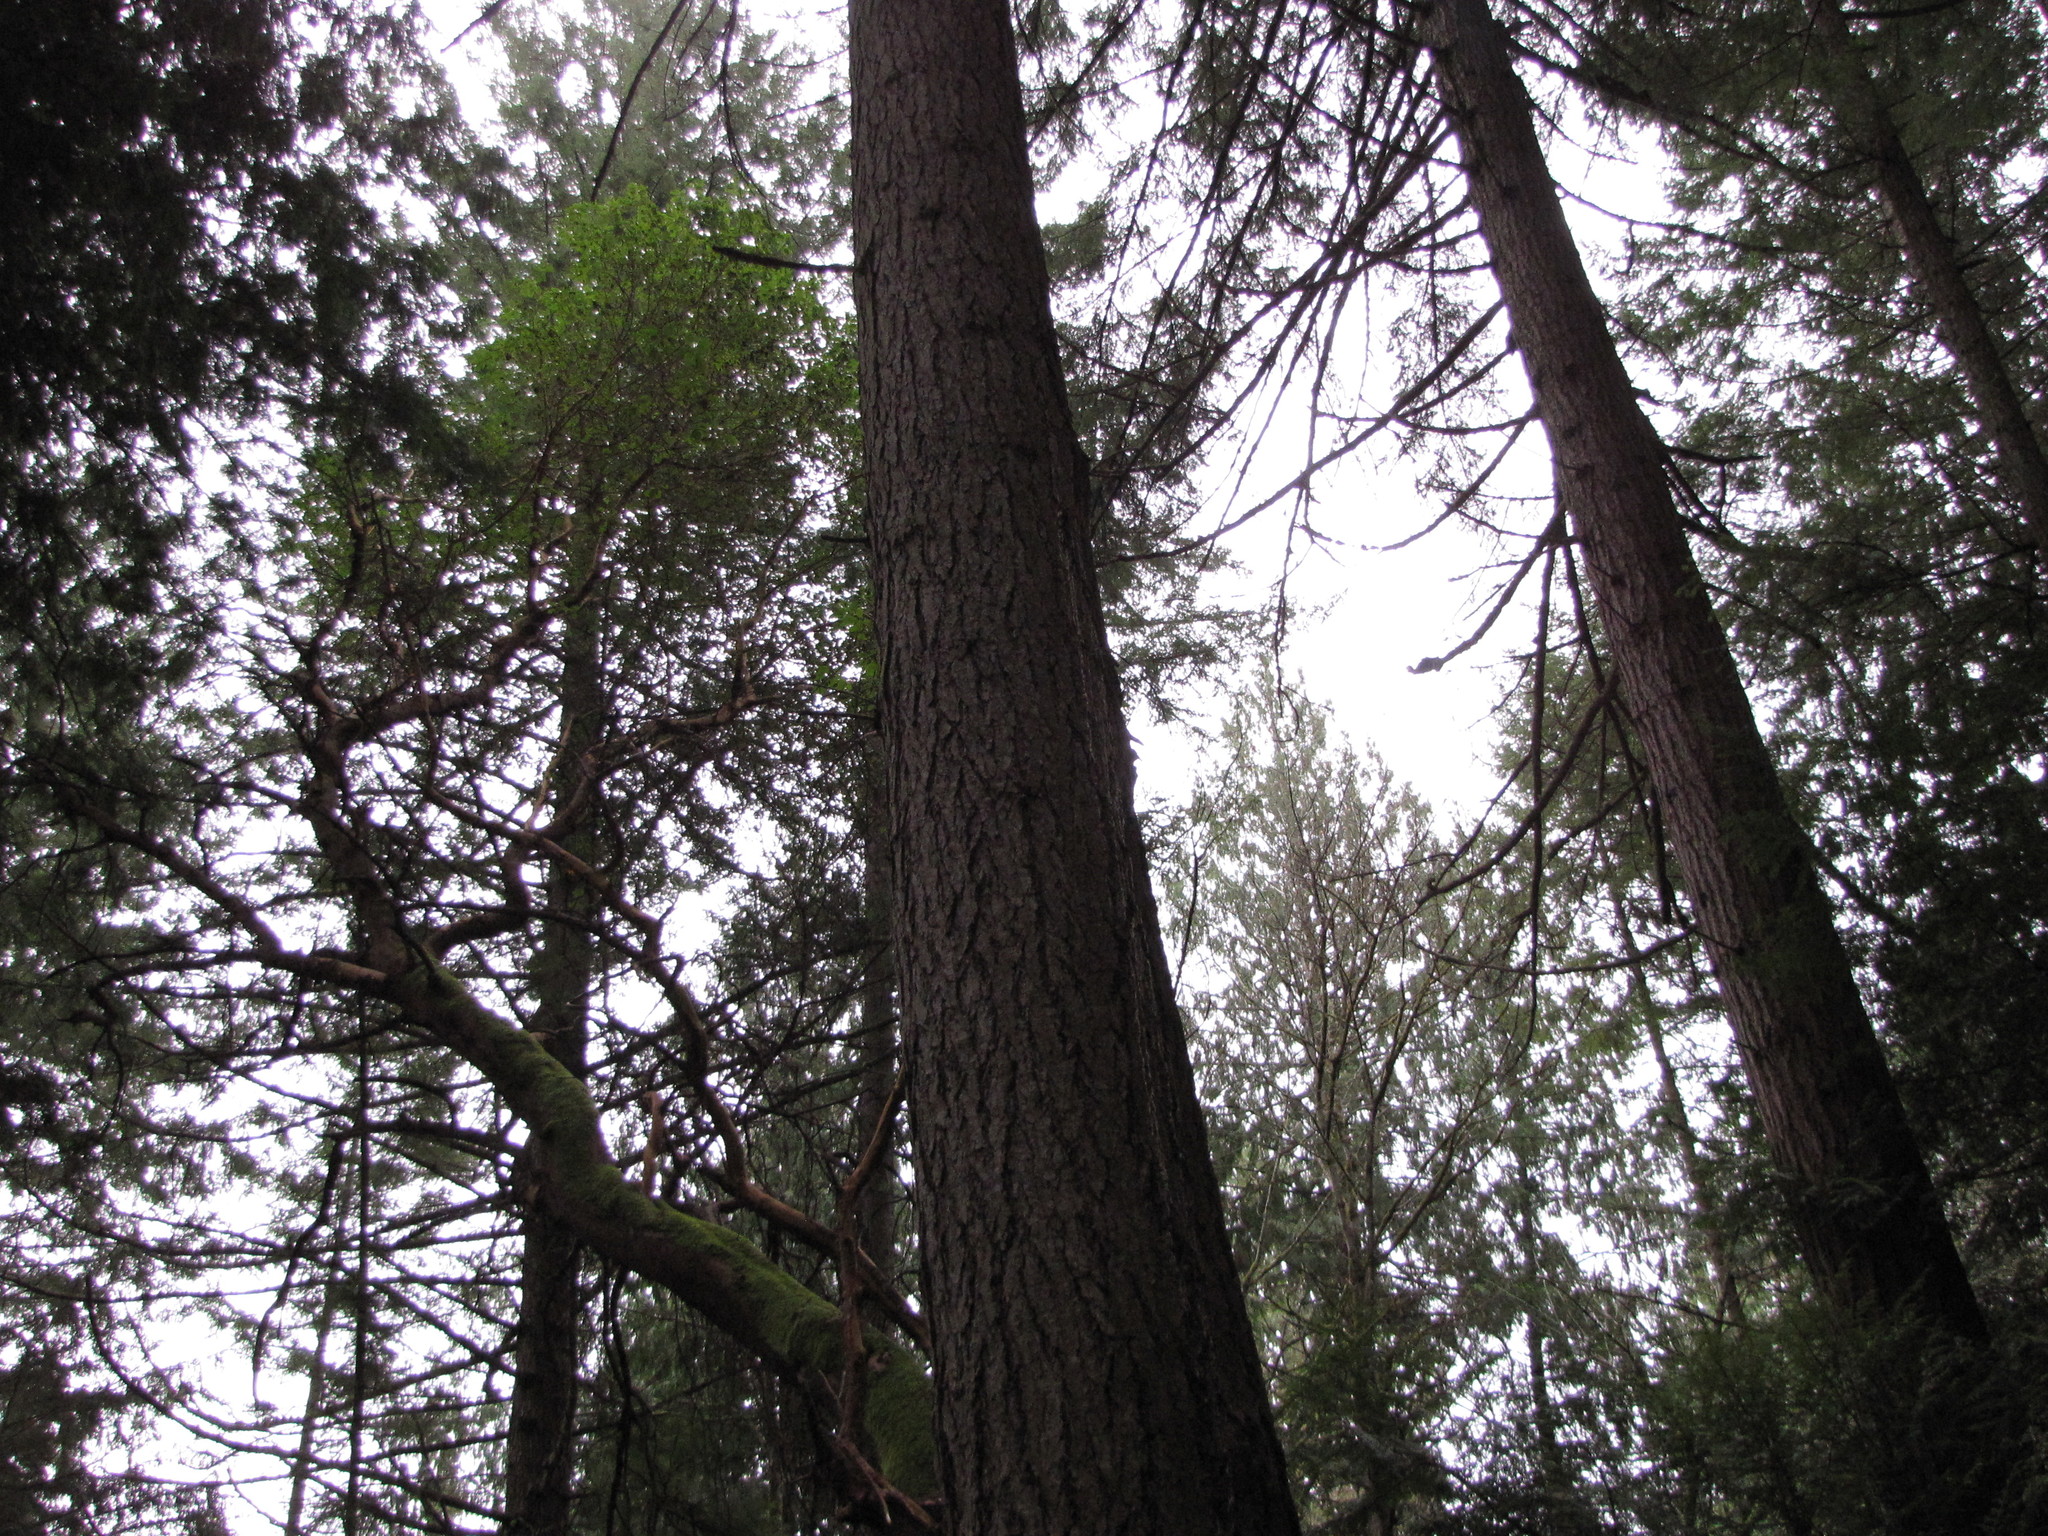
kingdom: Plantae
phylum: Tracheophyta
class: Pinopsida
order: Pinales
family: Pinaceae
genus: Pseudotsuga
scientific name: Pseudotsuga menziesii
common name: Douglas fir
